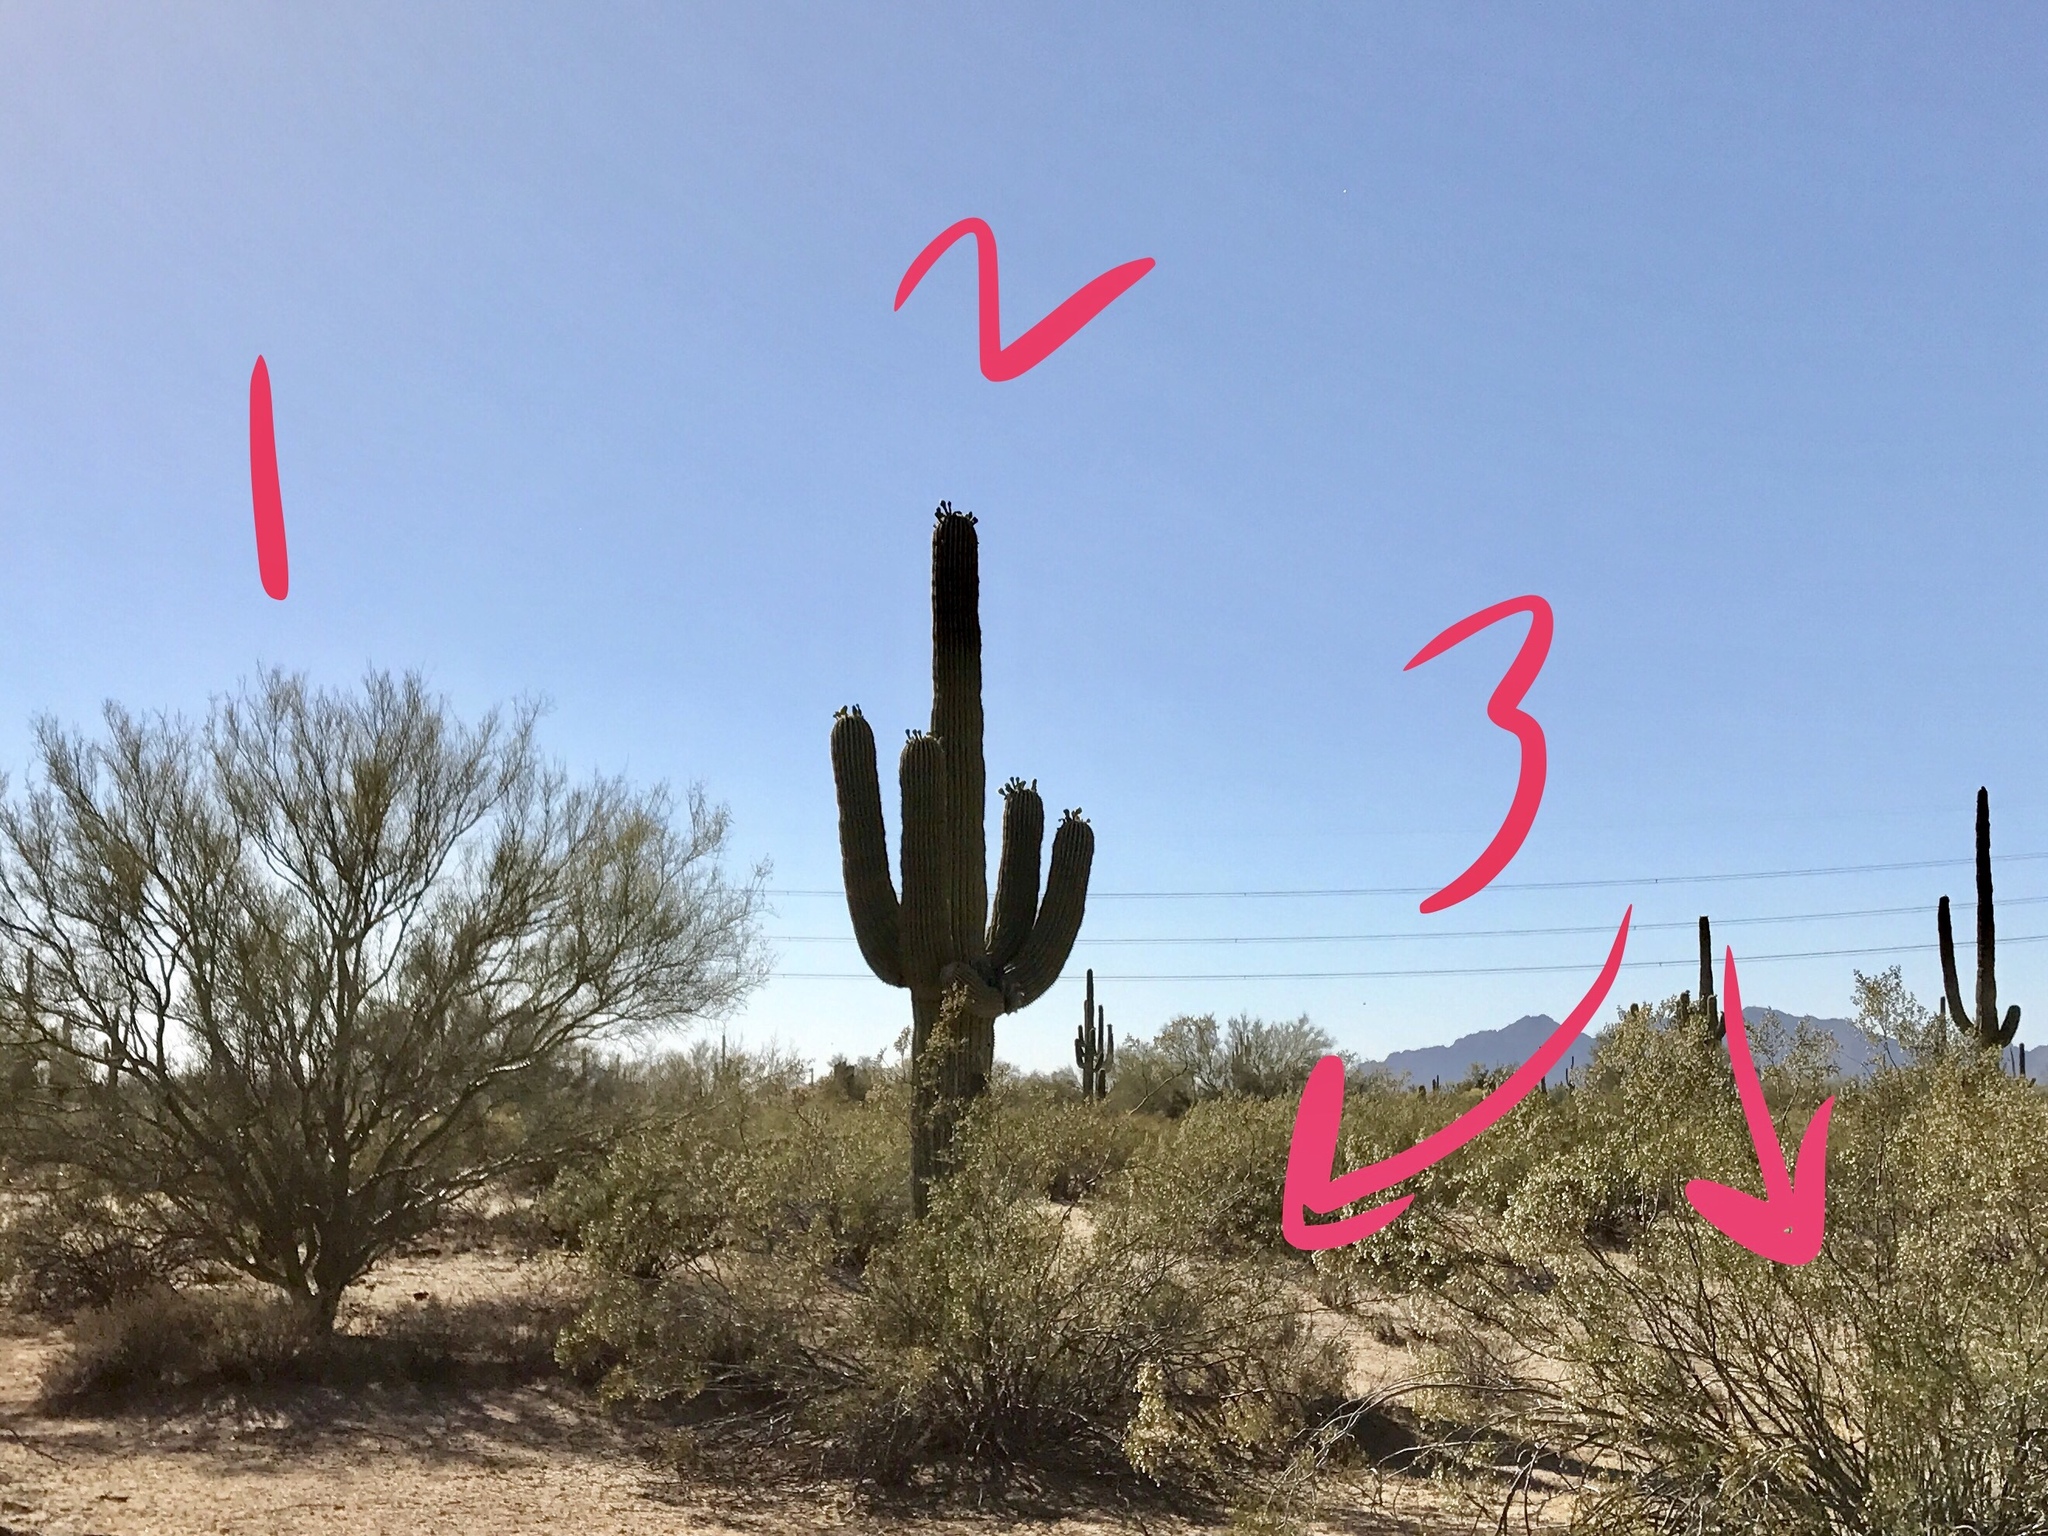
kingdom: Plantae
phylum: Tracheophyta
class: Magnoliopsida
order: Caryophyllales
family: Cactaceae
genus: Carnegiea
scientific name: Carnegiea gigantea
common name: Saguaro
